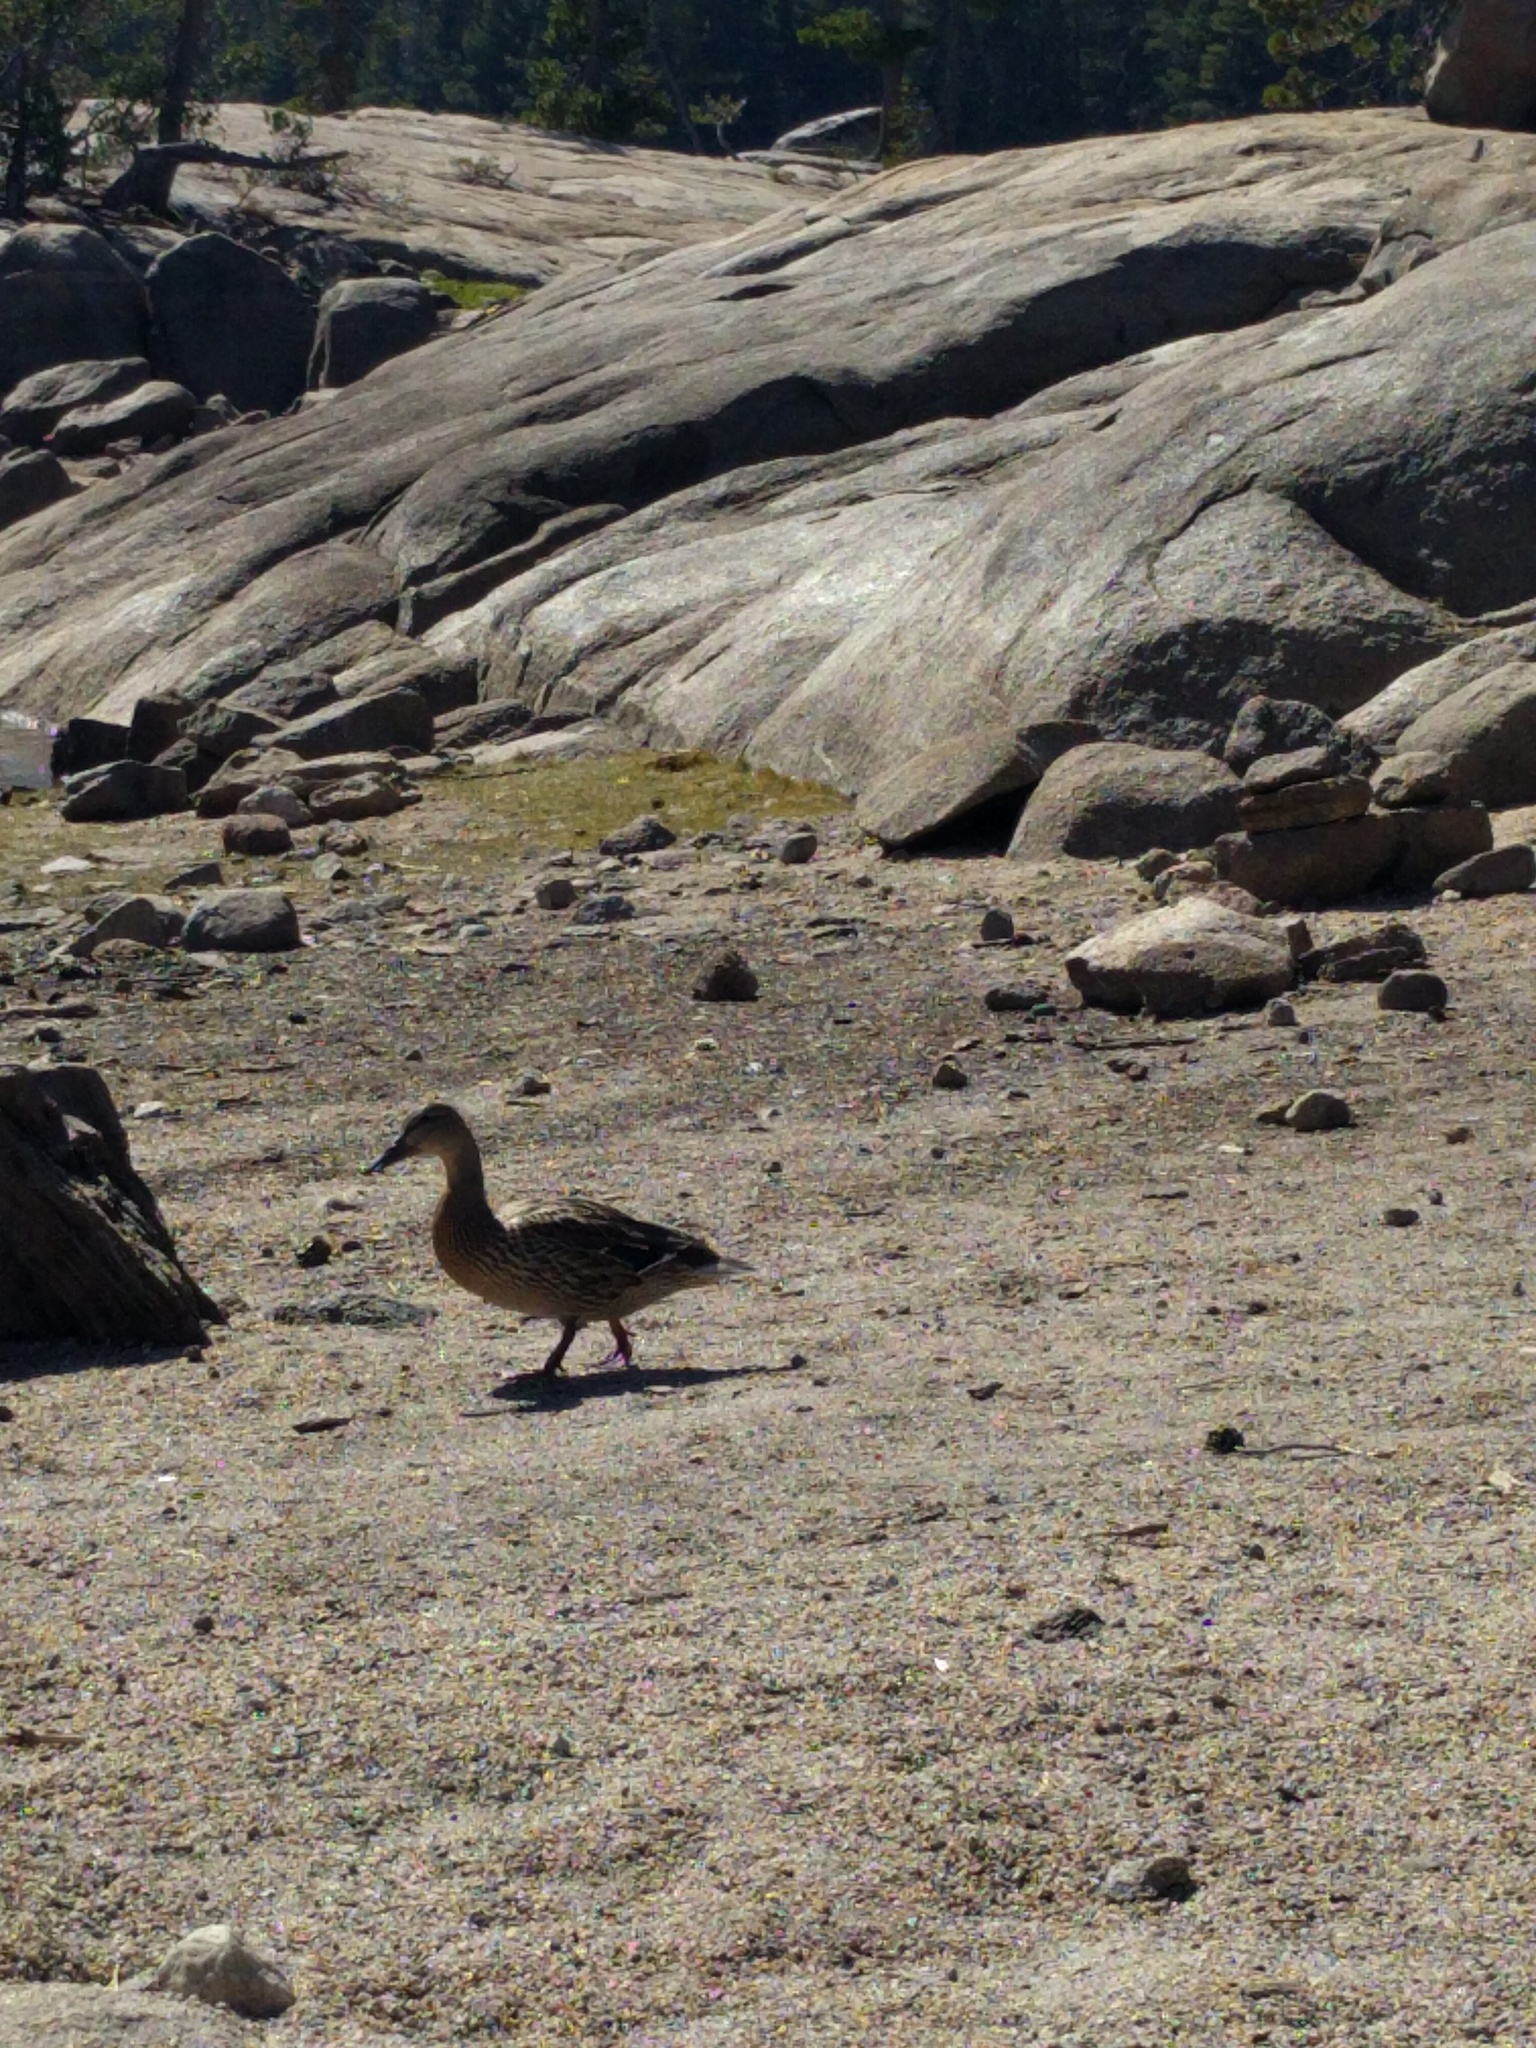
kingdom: Animalia
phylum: Chordata
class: Aves
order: Anseriformes
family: Anatidae
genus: Anas
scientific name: Anas platyrhynchos
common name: Mallard
